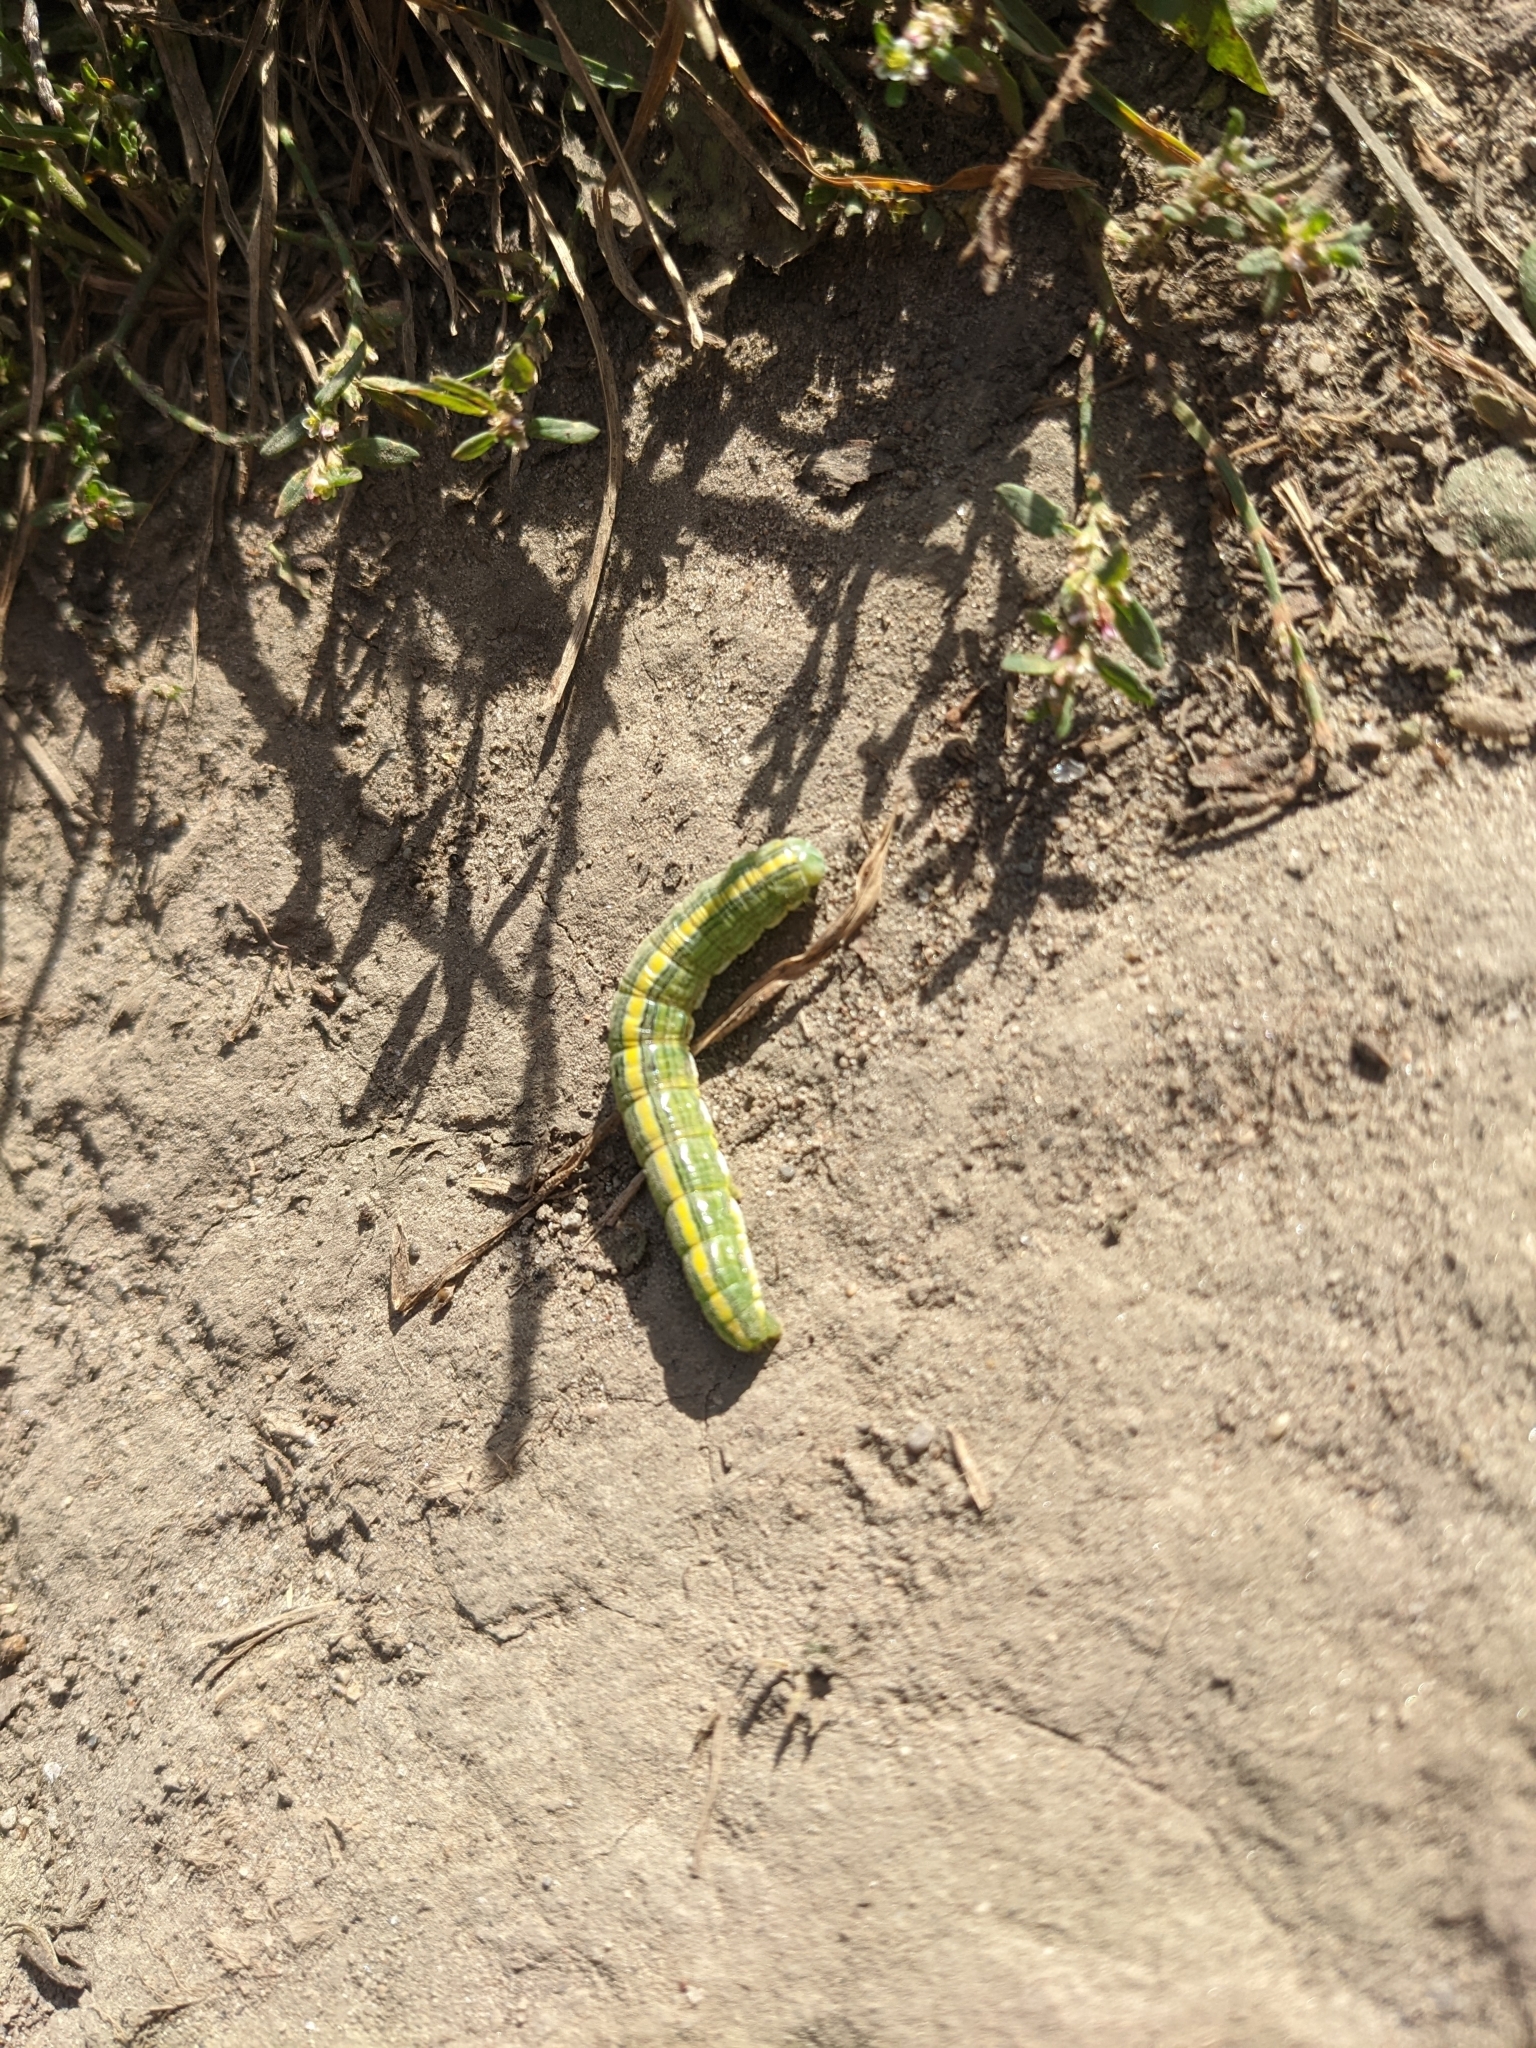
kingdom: Animalia
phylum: Arthropoda
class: Insecta
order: Lepidoptera
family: Noctuidae
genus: Cucullia
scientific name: Cucullia asteroides
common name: Asteroid moth
